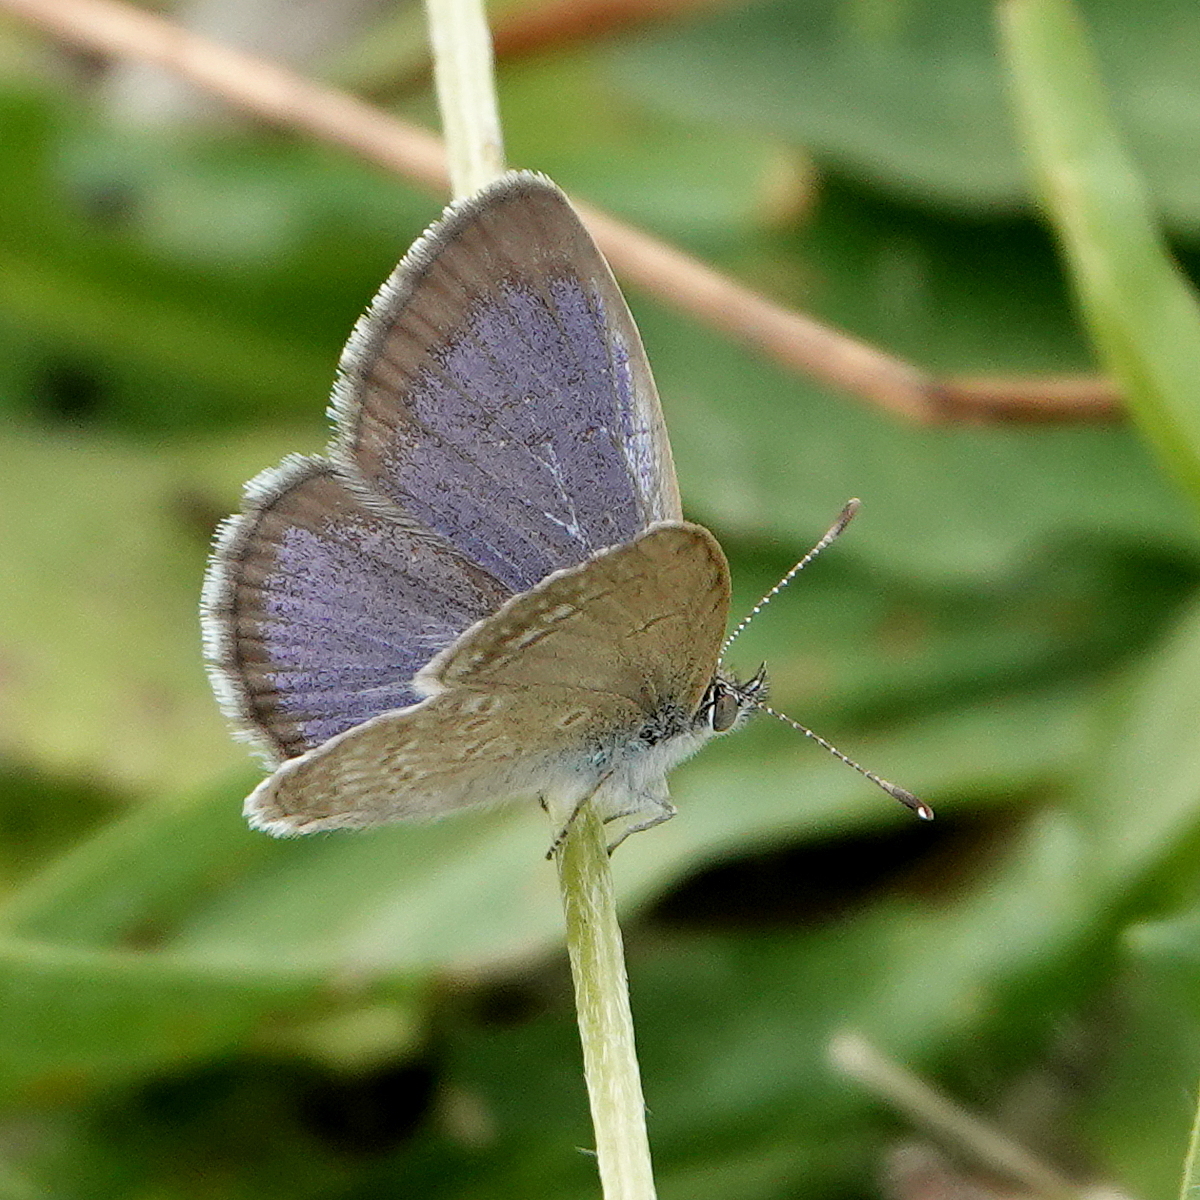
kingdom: Animalia
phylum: Arthropoda
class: Insecta
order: Lepidoptera
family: Lycaenidae
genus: Zizina
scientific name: Zizina labradus
